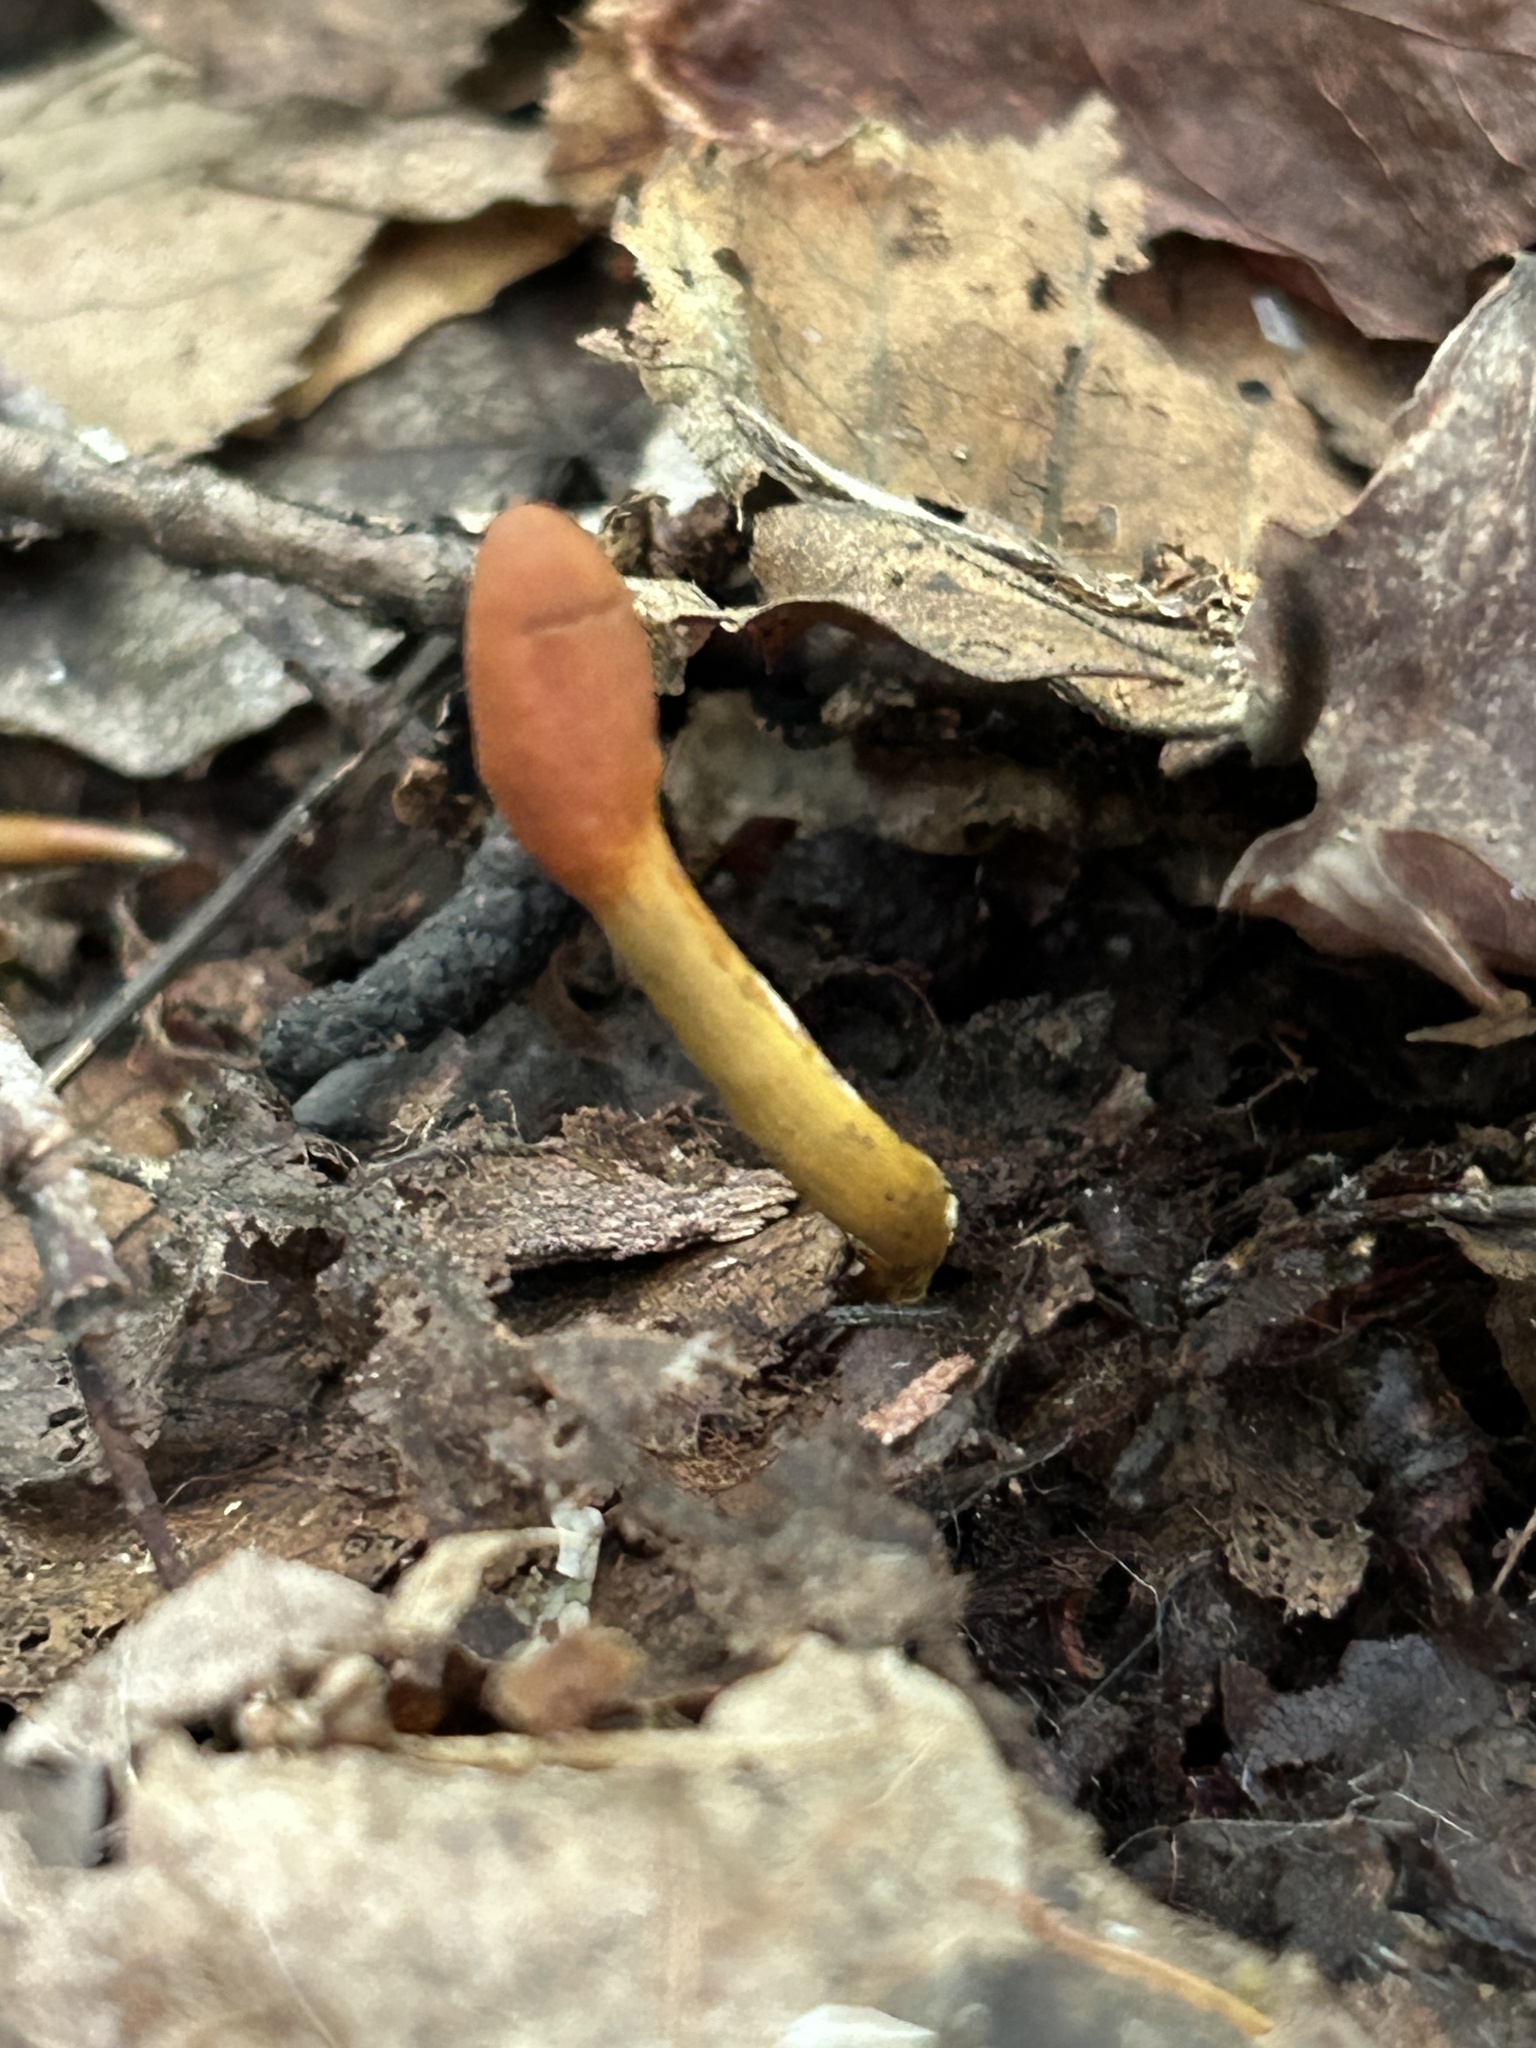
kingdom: Fungi
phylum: Ascomycota
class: Sordariomycetes
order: Hypocreales
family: Ophiocordycipitaceae
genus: Tolypocladium
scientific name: Tolypocladium ophioglossoides
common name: Snaketongue truffleclub
